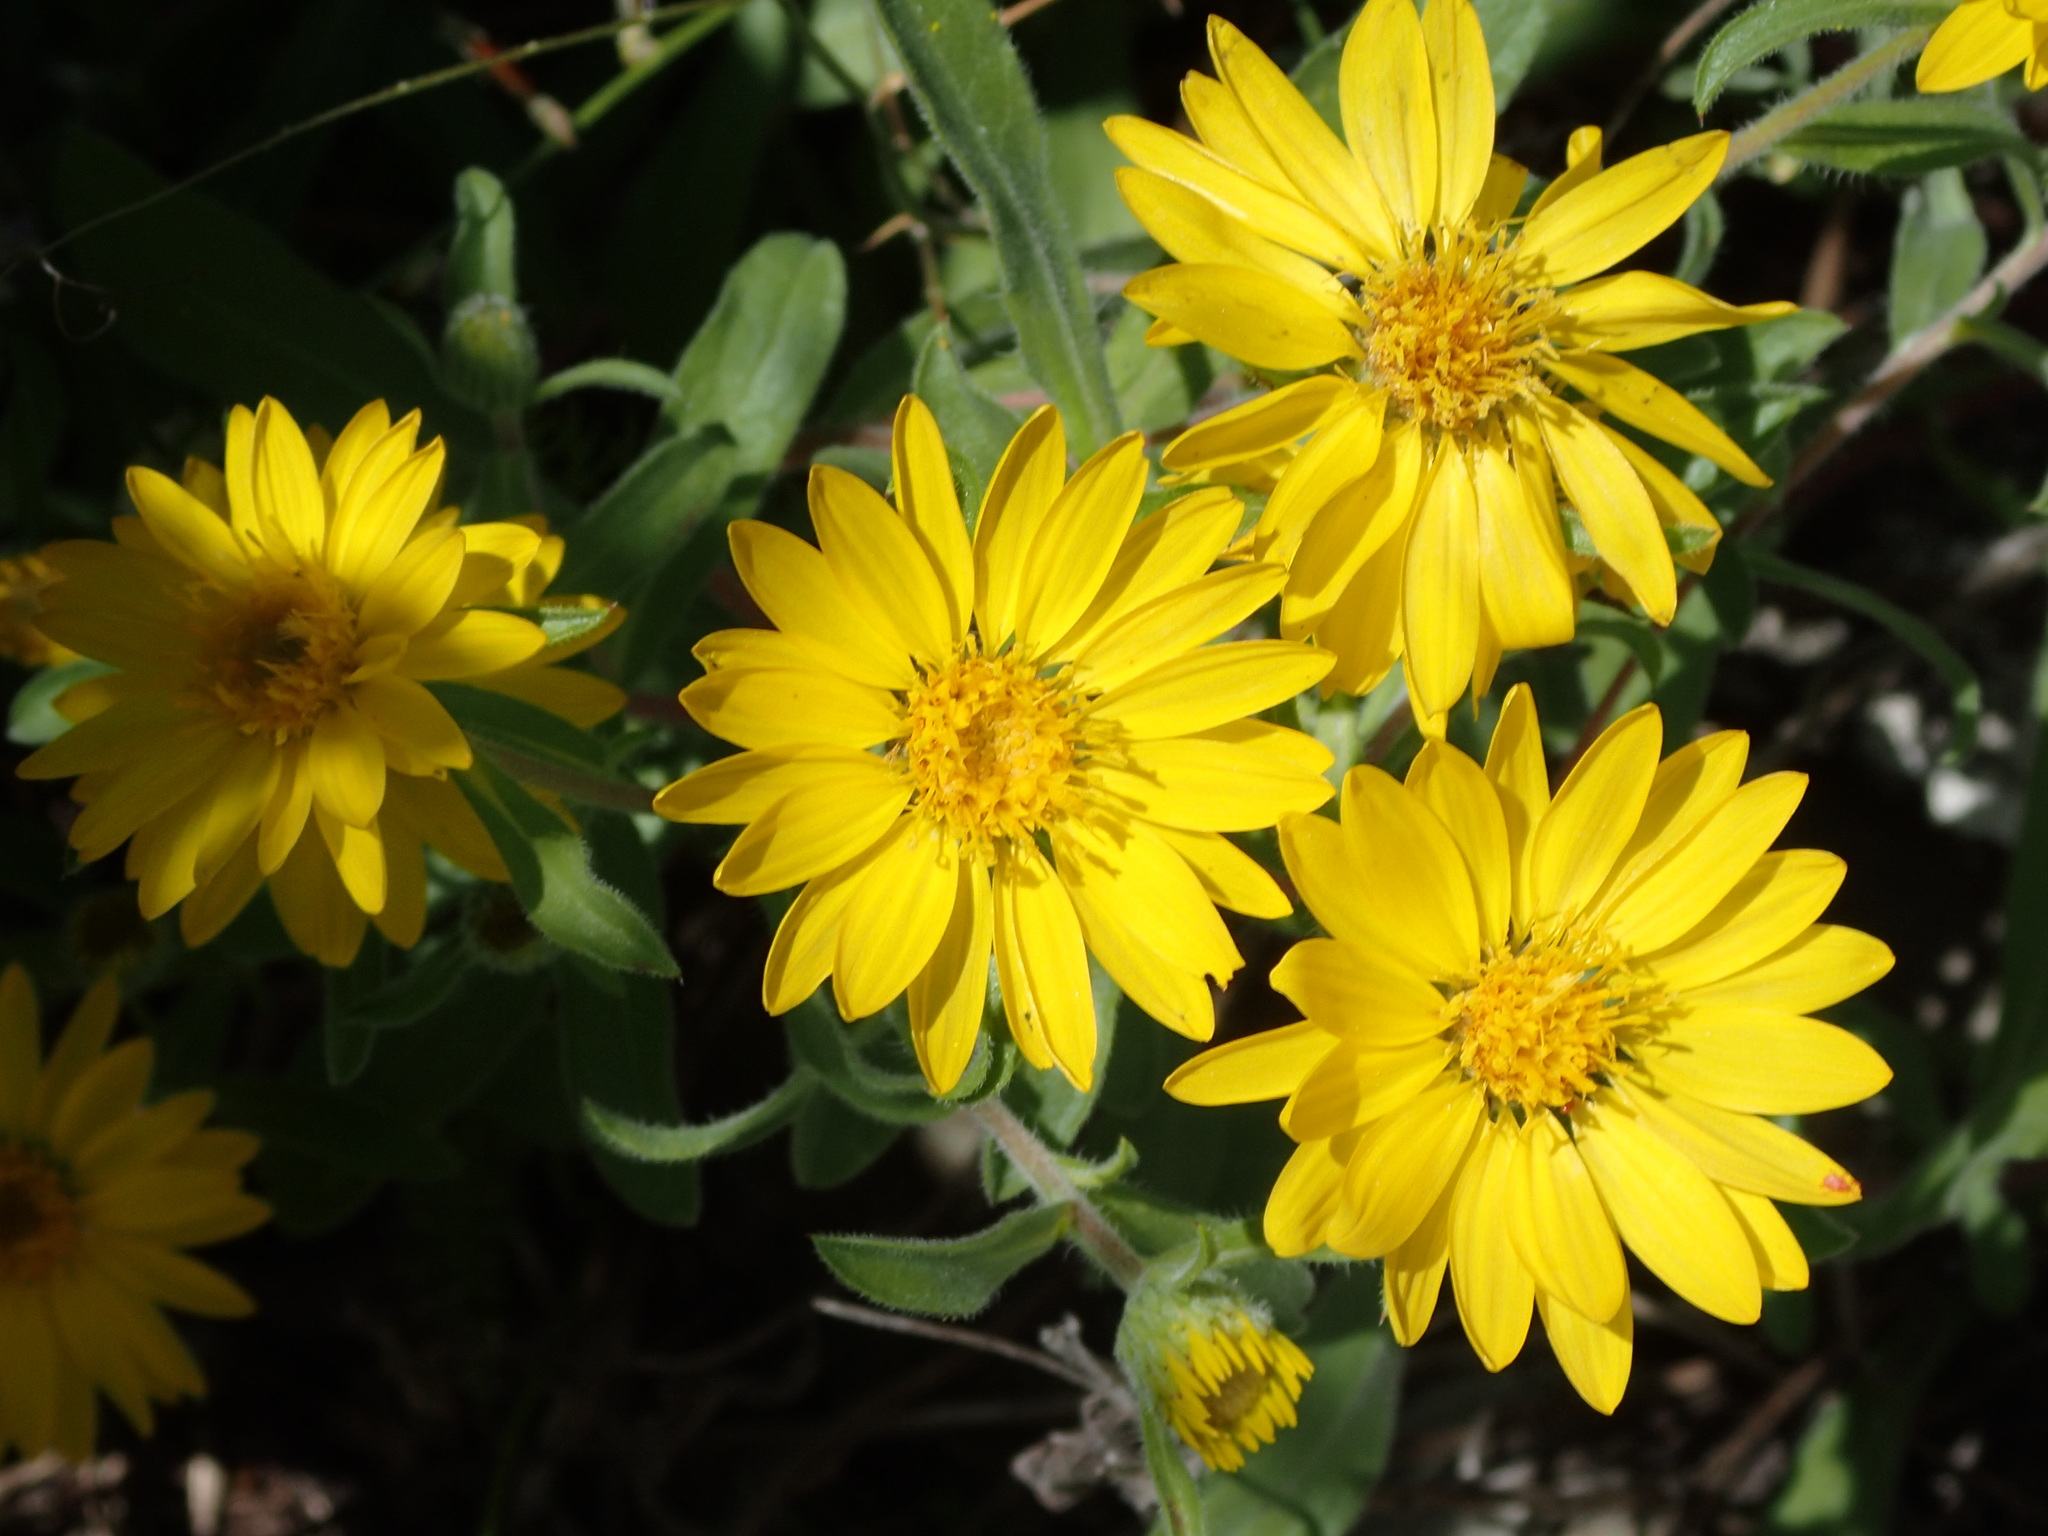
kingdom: Plantae
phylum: Tracheophyta
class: Magnoliopsida
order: Asterales
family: Asteraceae
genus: Heterotheca
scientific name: Heterotheca villosa
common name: Hairy false goldenaster
